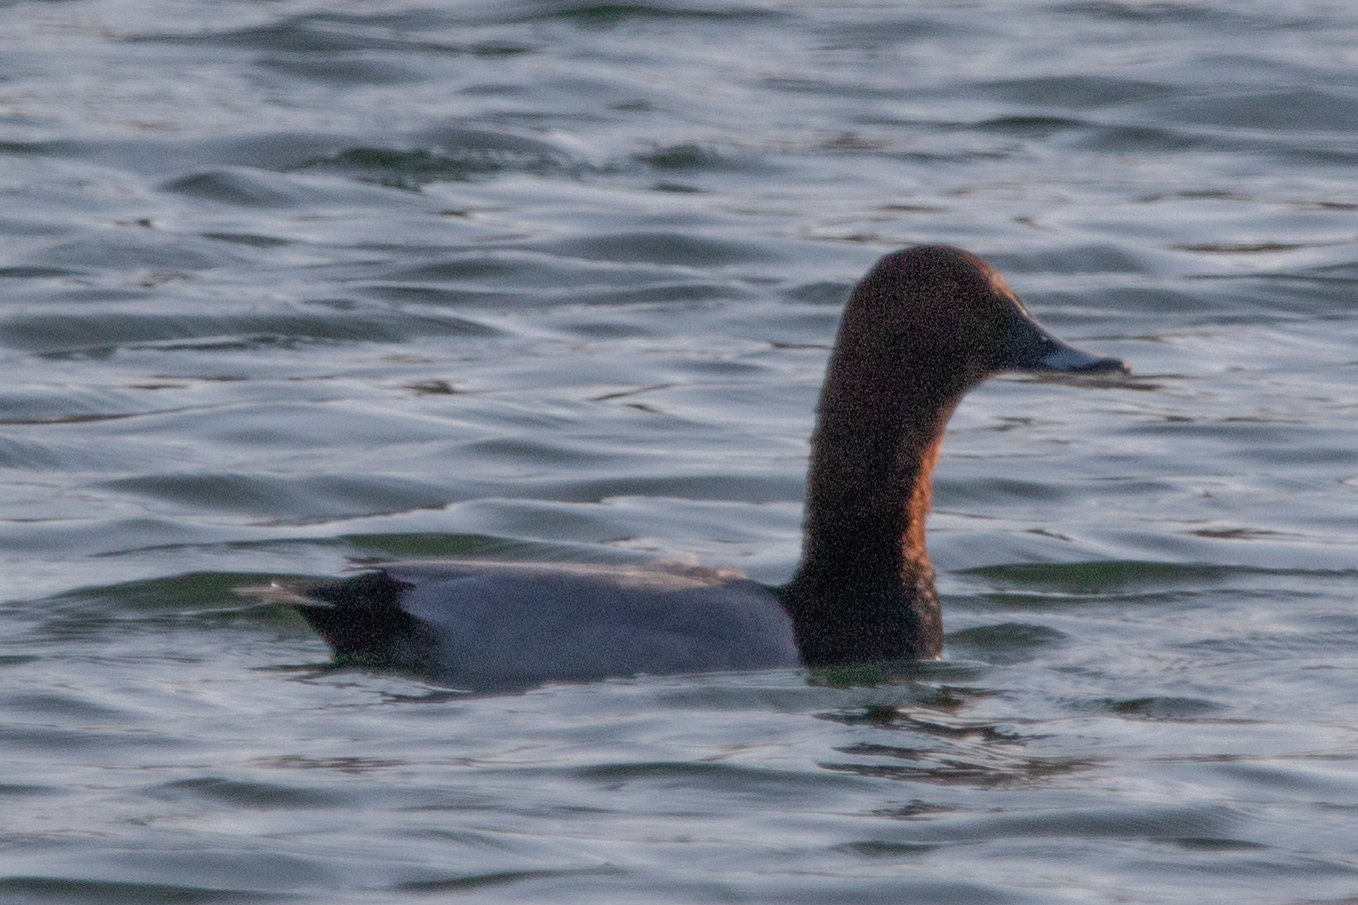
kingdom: Animalia
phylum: Chordata
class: Aves
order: Anseriformes
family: Anatidae
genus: Aythya
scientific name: Aythya ferina
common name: Common pochard
